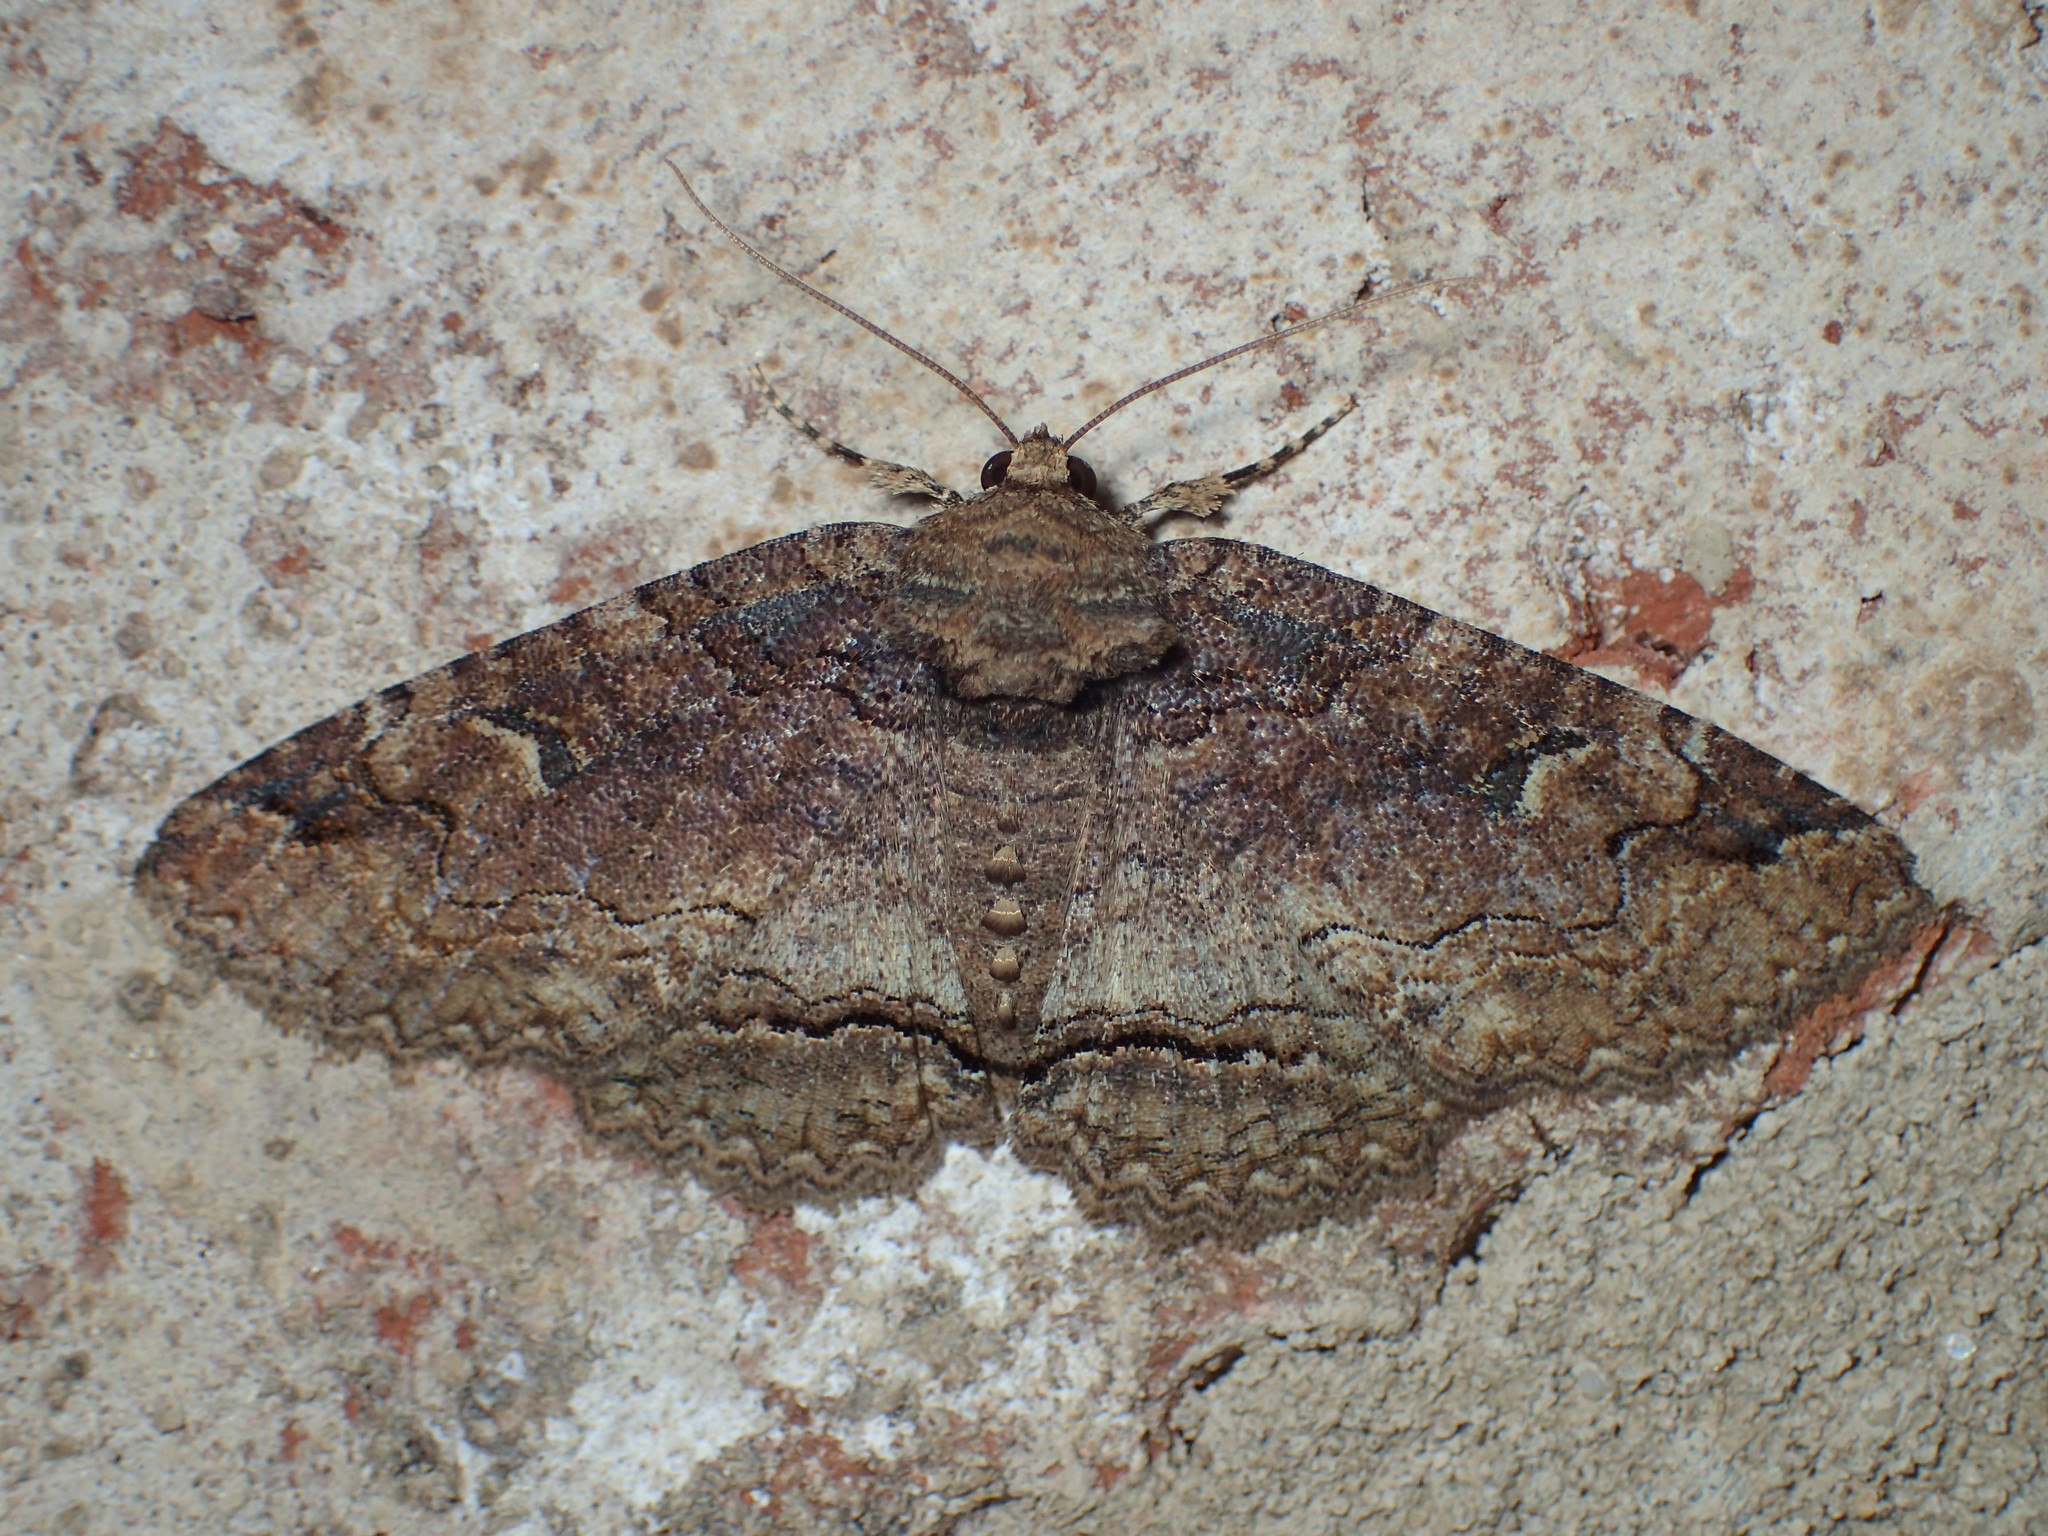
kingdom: Animalia
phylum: Arthropoda
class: Insecta
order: Lepidoptera
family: Erebidae
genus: Zale
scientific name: Zale phaeocapna
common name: Hazel zale moth
